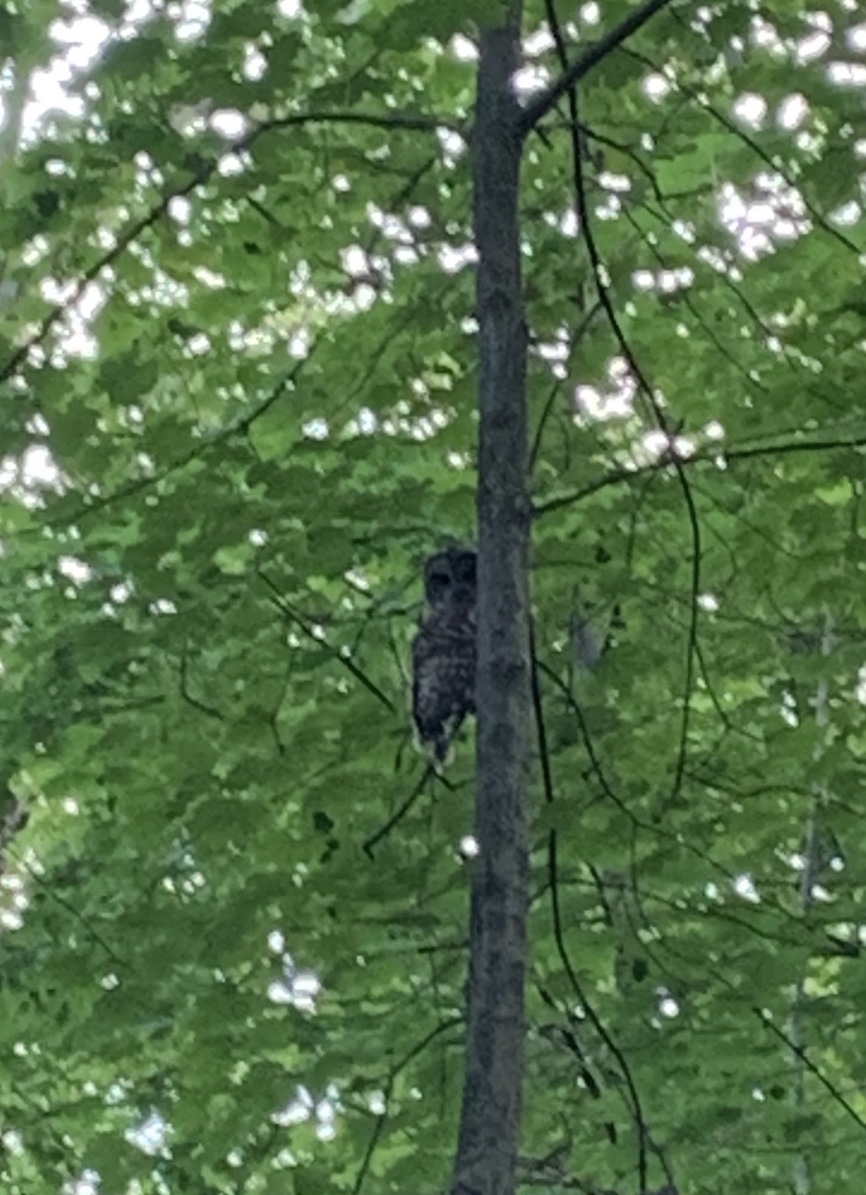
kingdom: Animalia
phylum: Chordata
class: Aves
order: Strigiformes
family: Strigidae
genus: Strix
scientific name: Strix varia
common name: Barred owl
